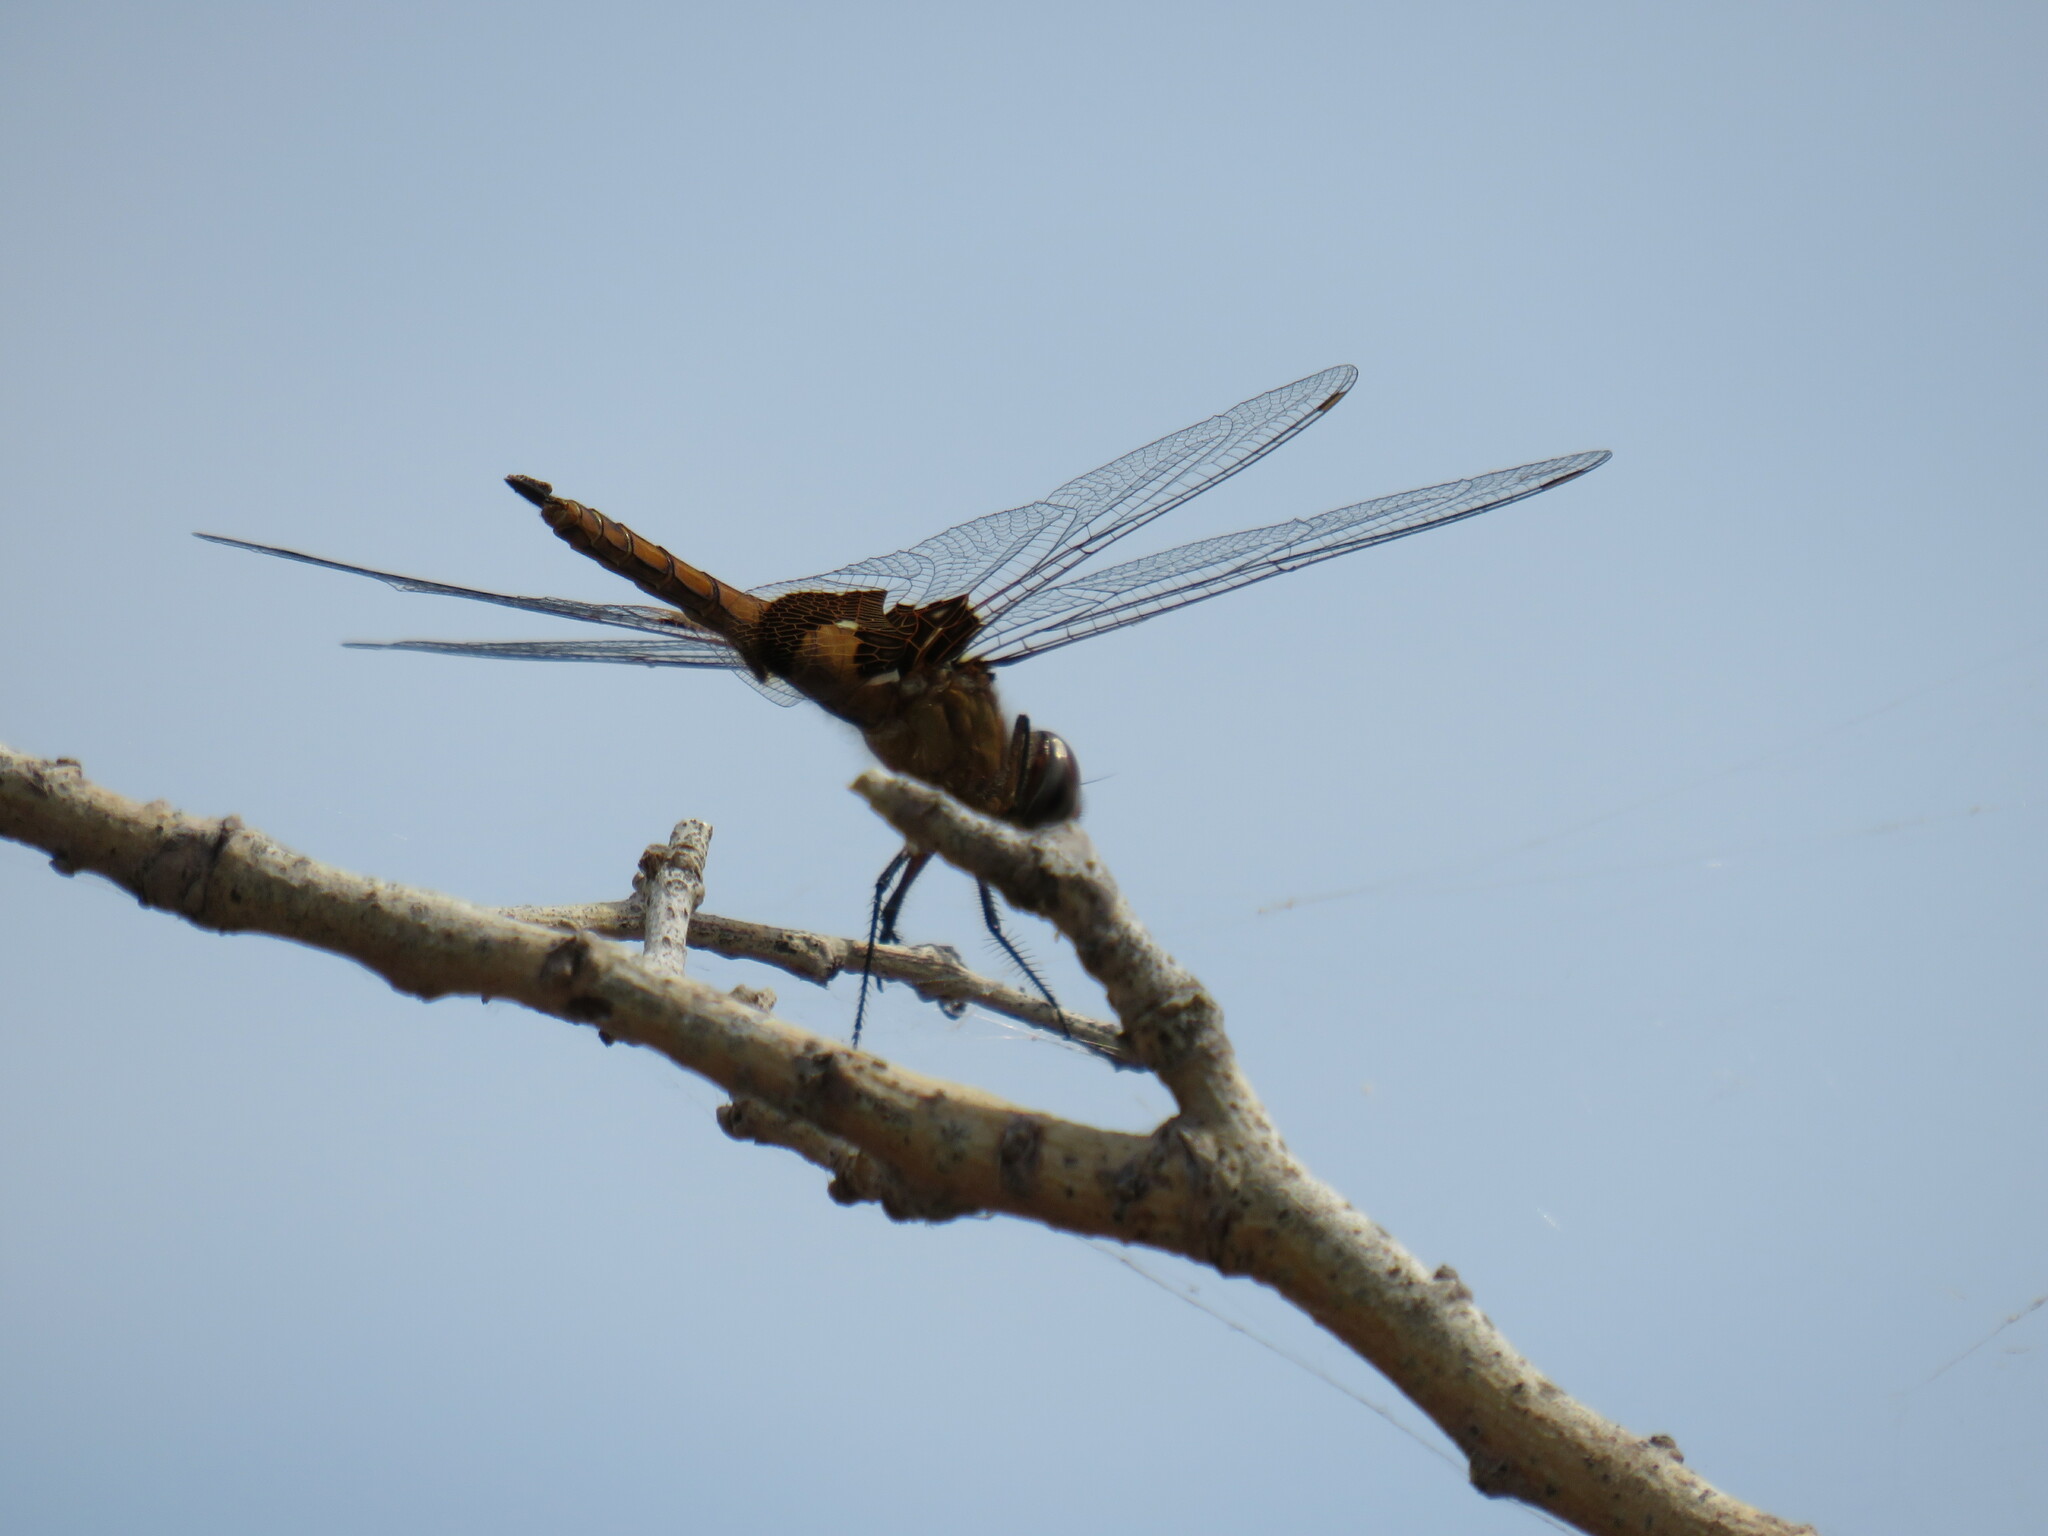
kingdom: Animalia
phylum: Arthropoda
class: Insecta
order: Odonata
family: Libellulidae
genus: Tramea
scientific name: Tramea onusta
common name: Red saddlebags
